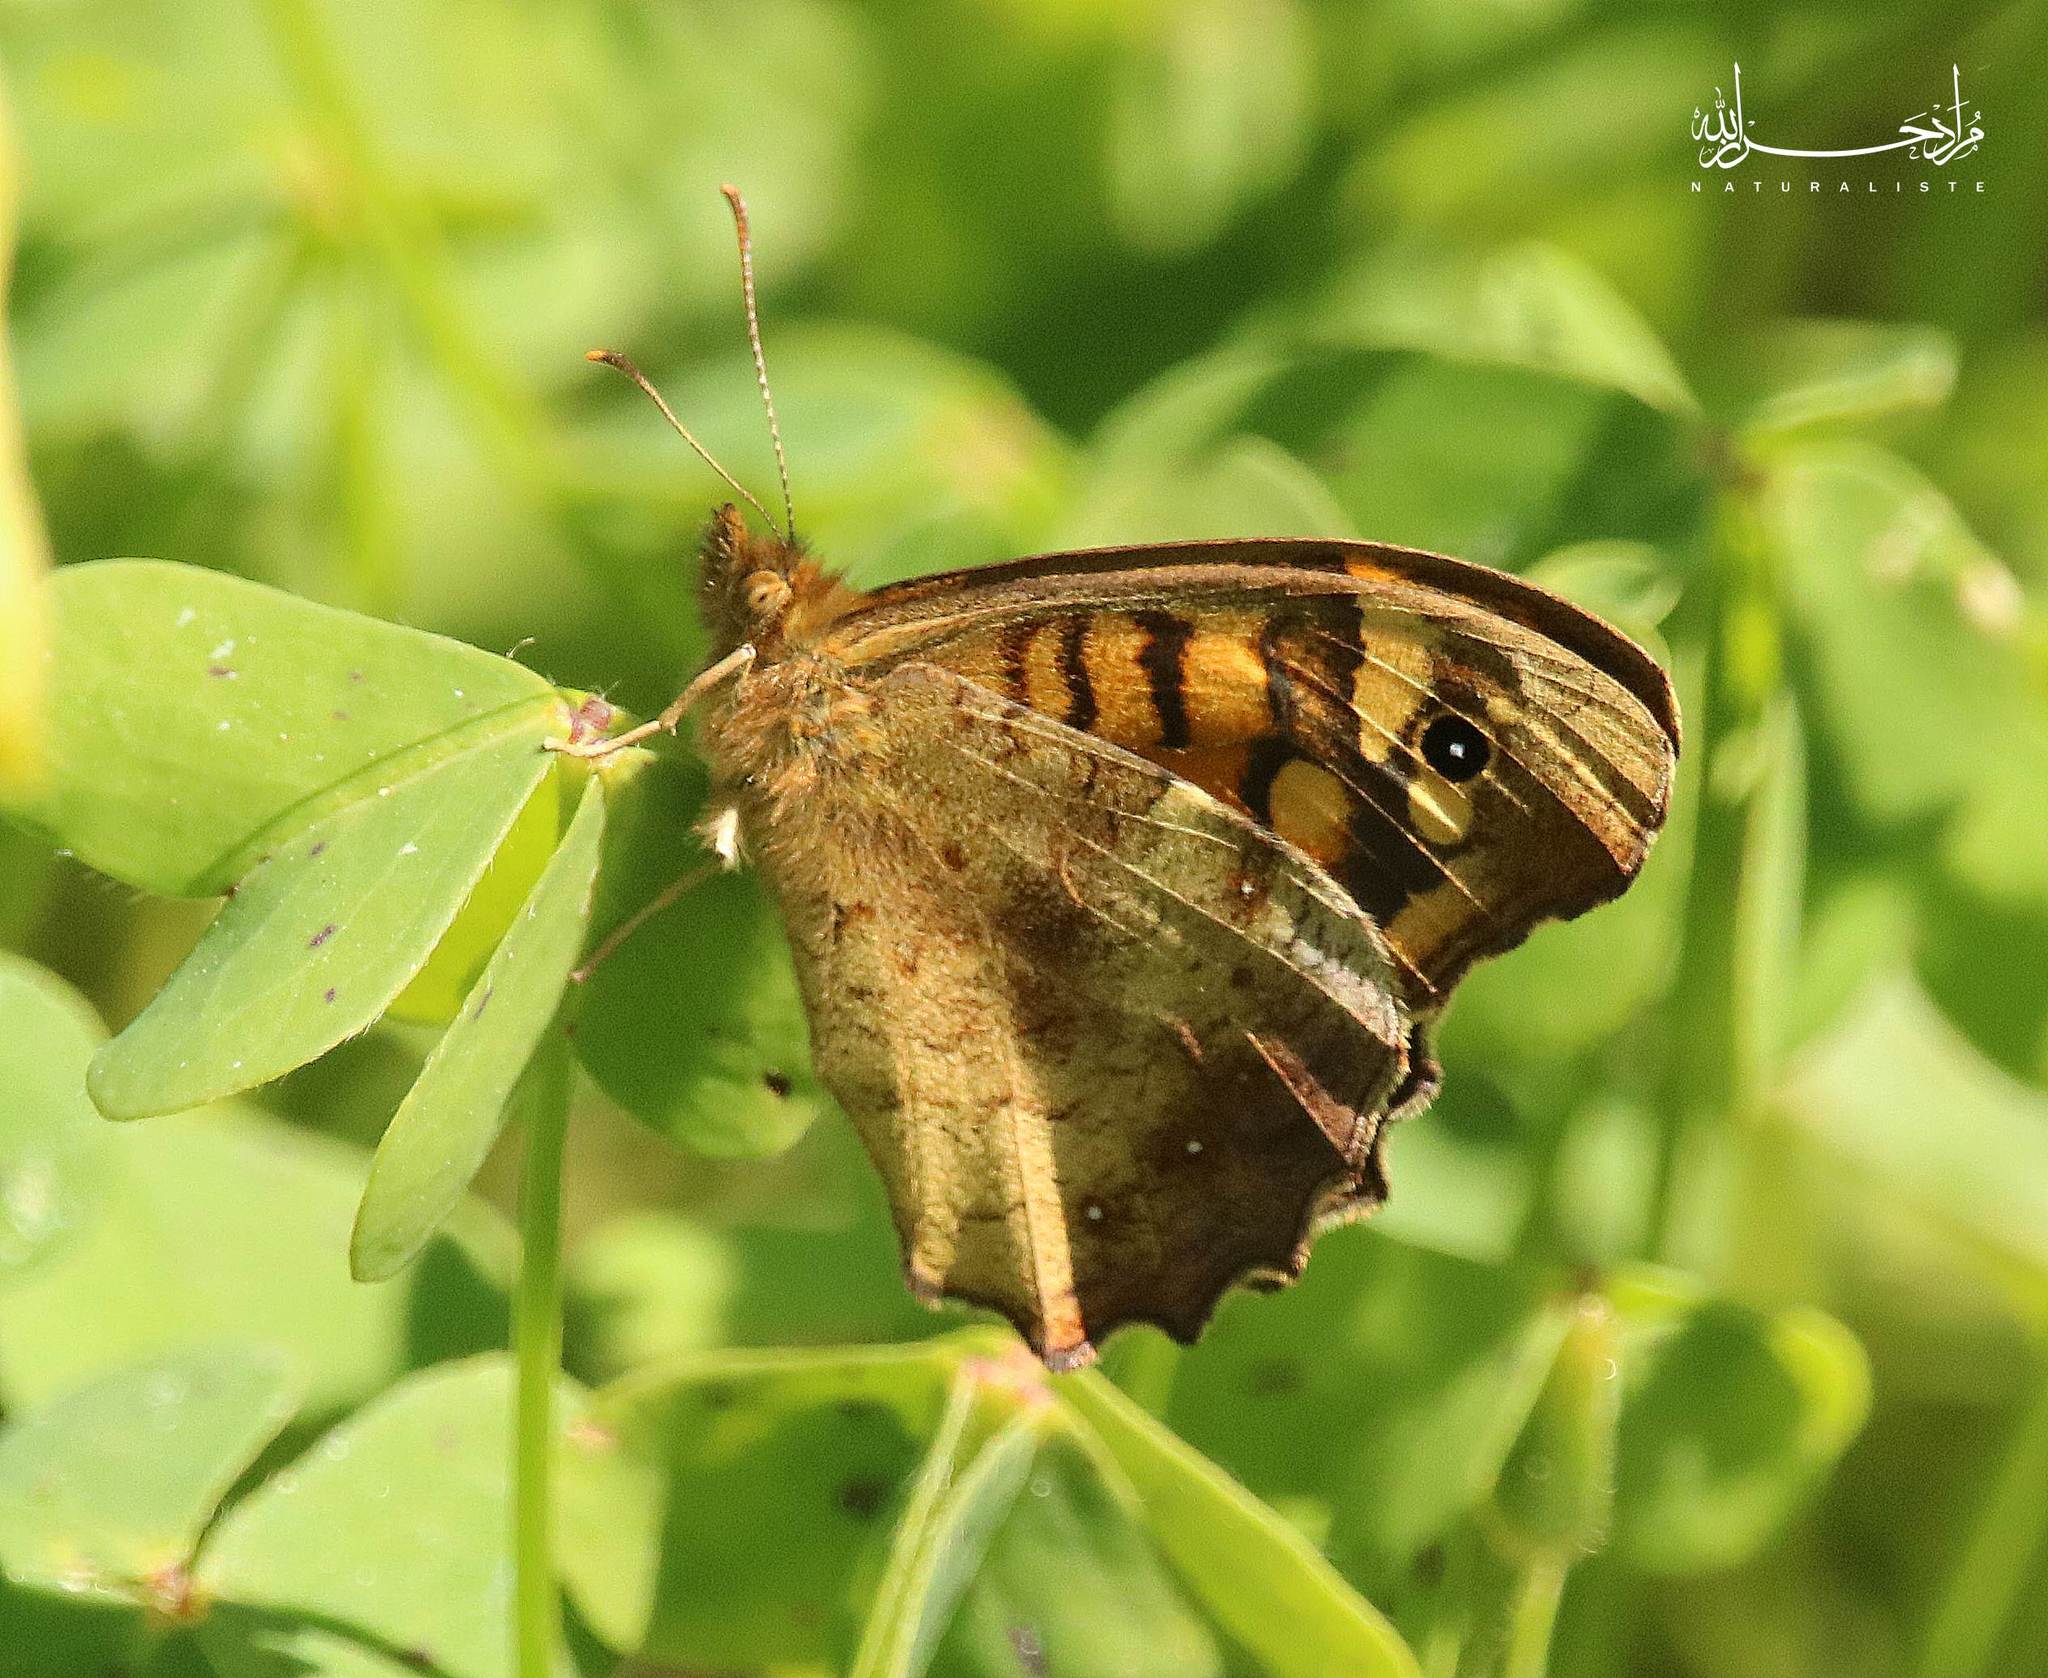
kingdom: Animalia
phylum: Arthropoda
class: Insecta
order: Lepidoptera
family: Nymphalidae
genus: Pararge
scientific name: Pararge aegeria
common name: Speckled wood
